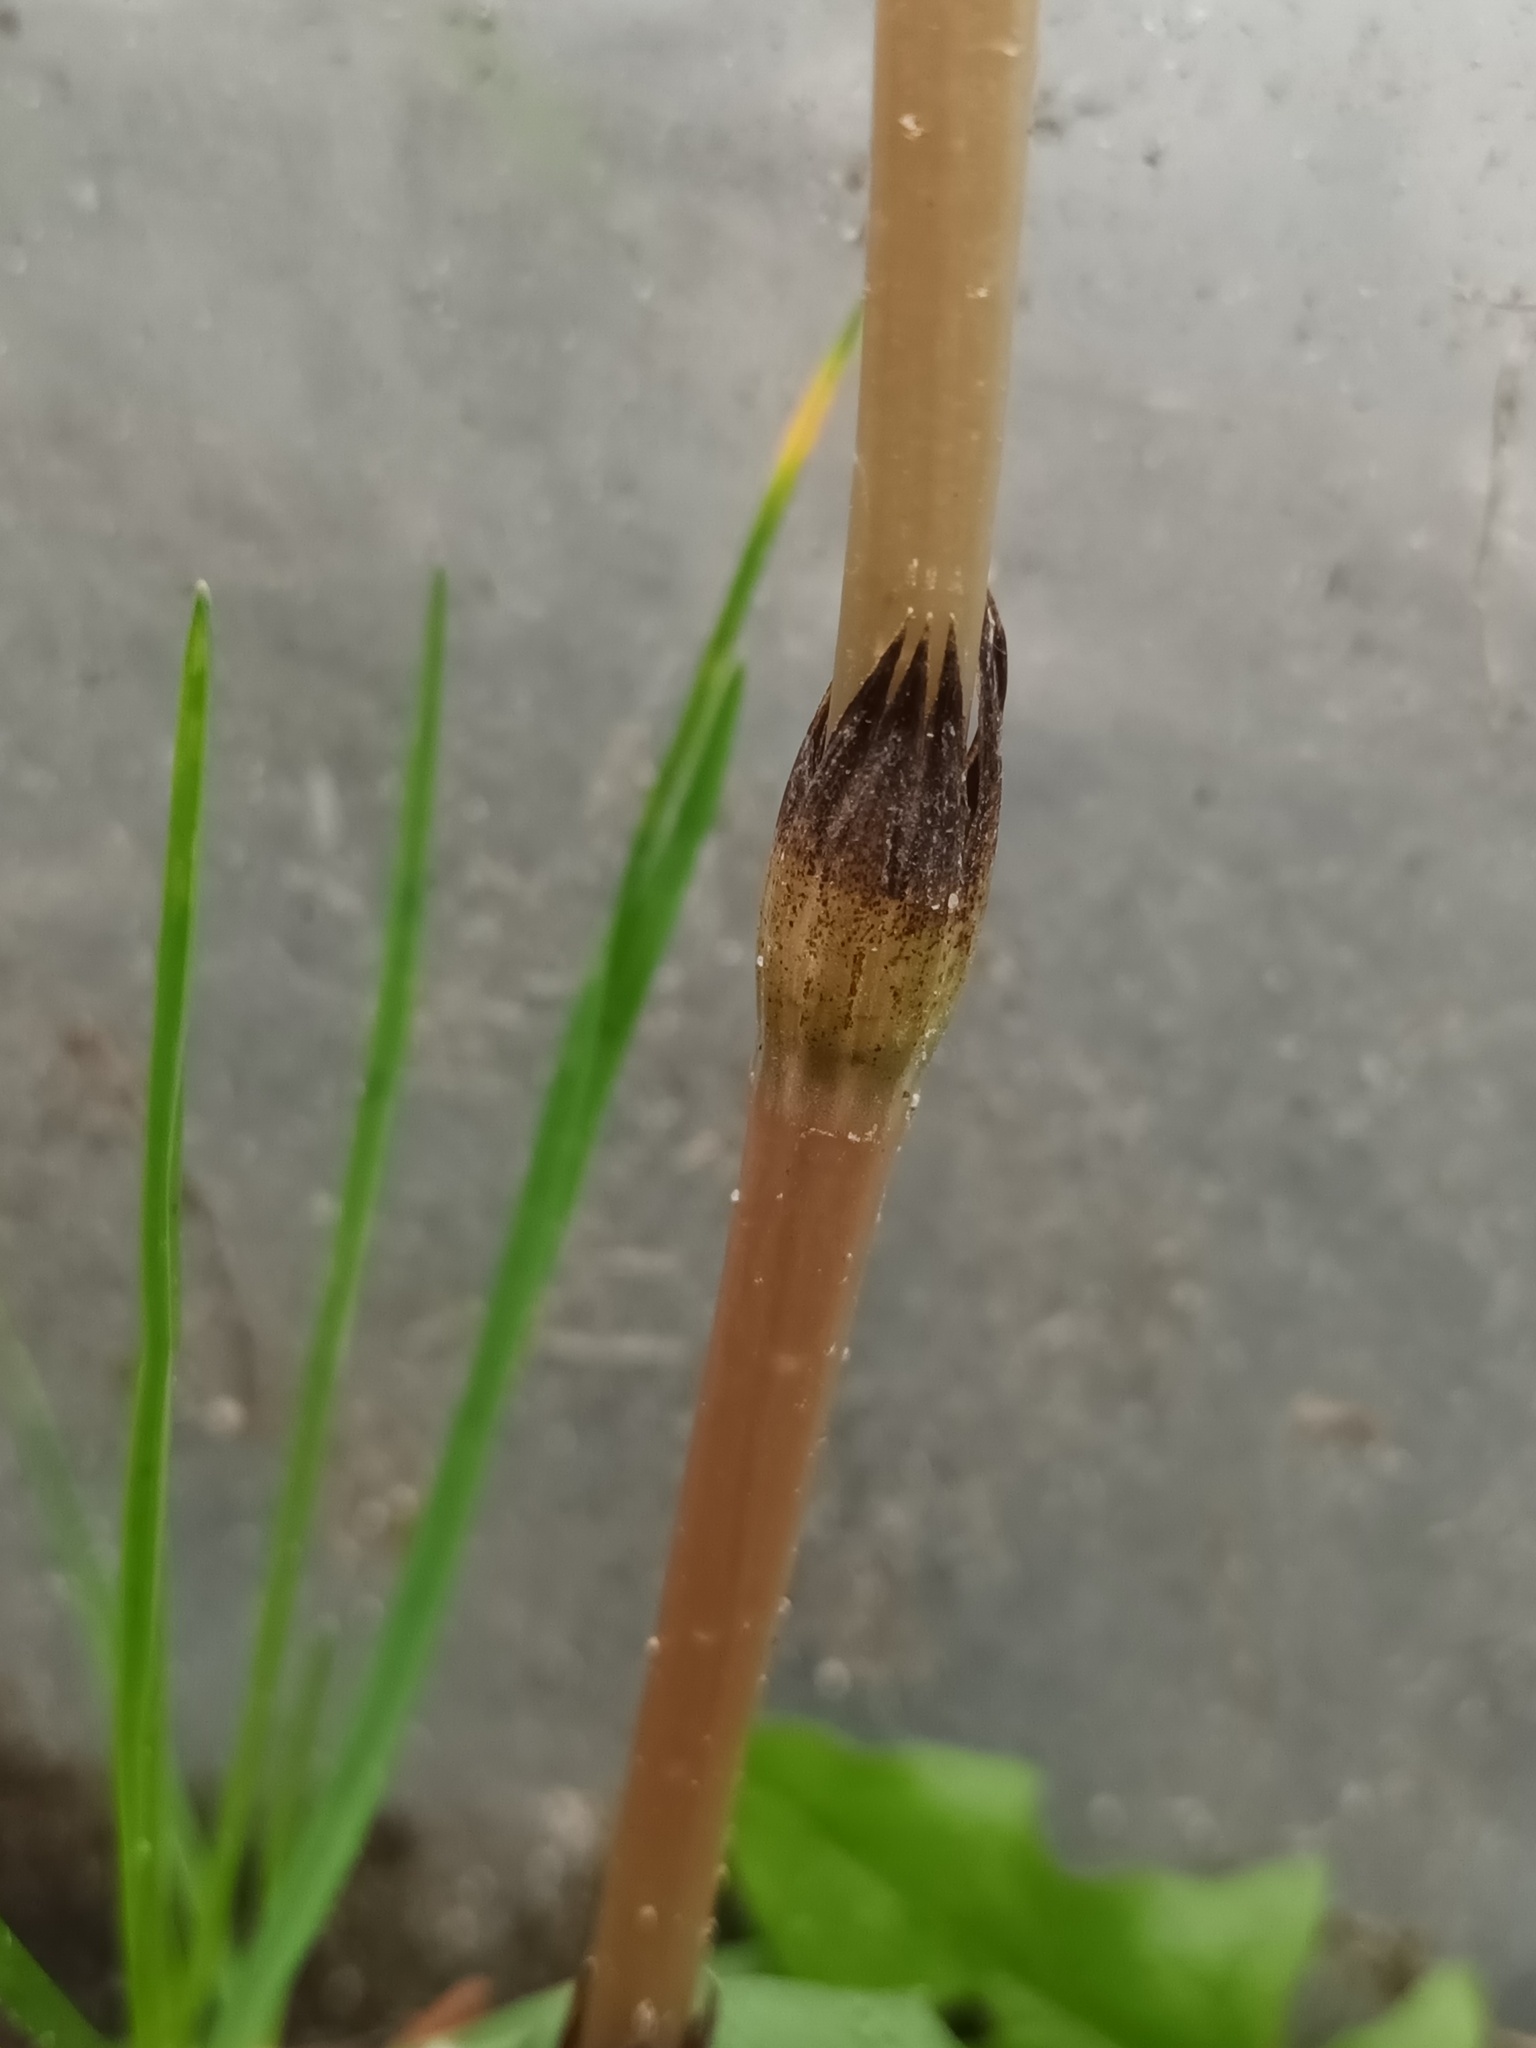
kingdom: Plantae
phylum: Tracheophyta
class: Polypodiopsida
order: Equisetales
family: Equisetaceae
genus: Equisetum
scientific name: Equisetum arvense
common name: Field horsetail
